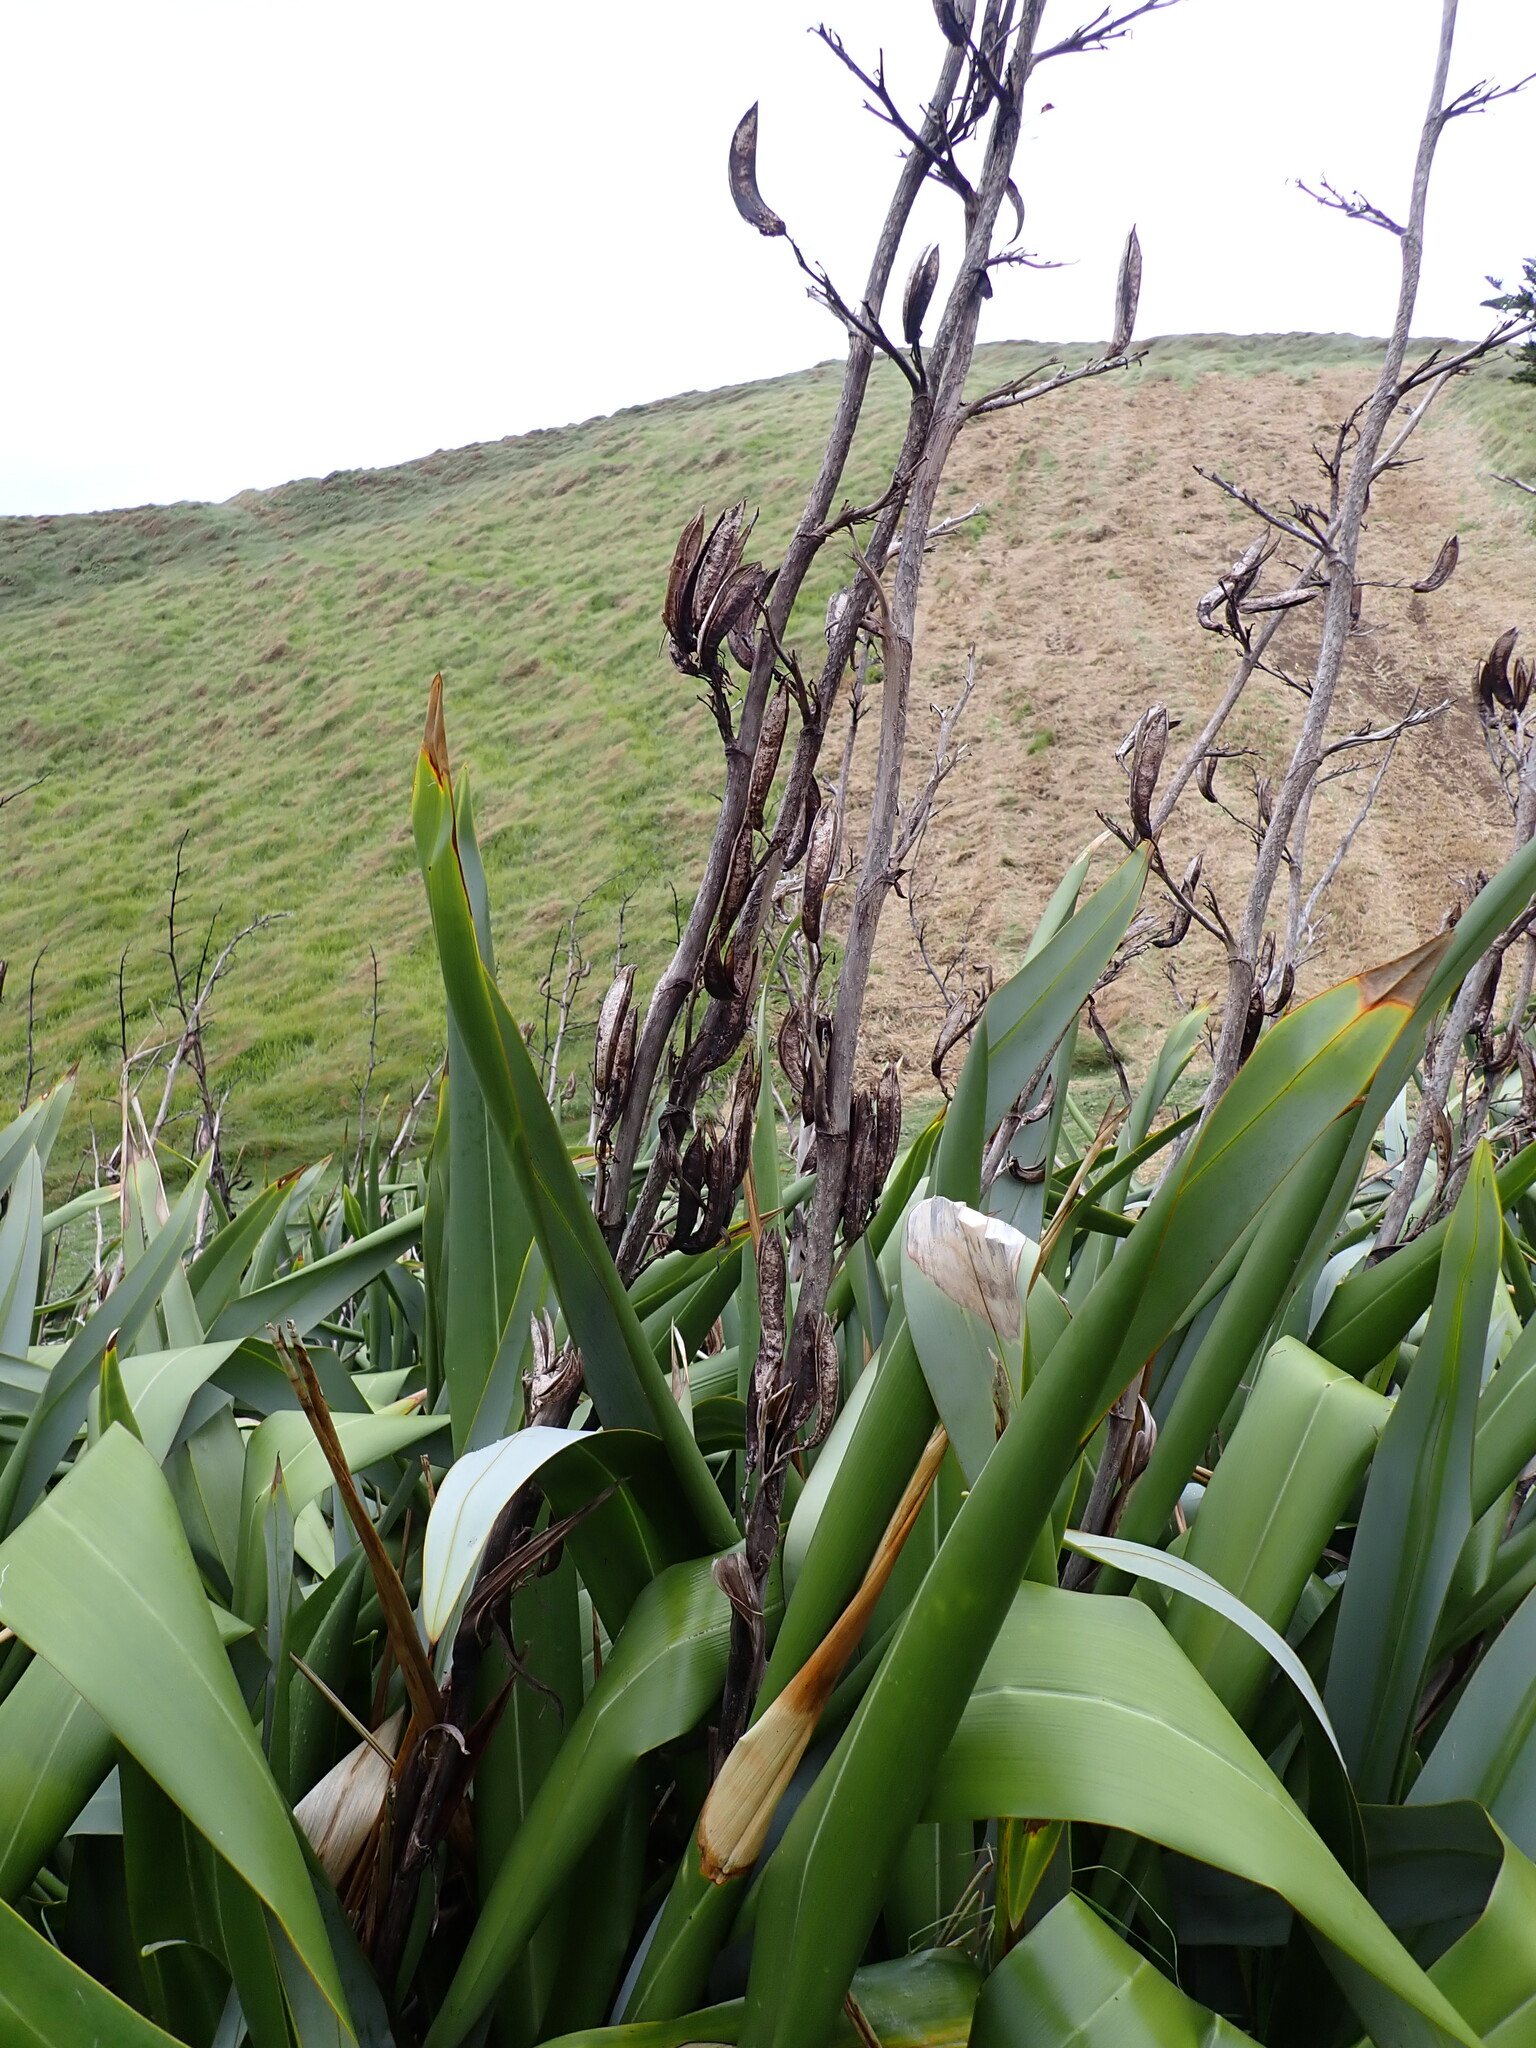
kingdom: Plantae
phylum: Tracheophyta
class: Liliopsida
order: Asparagales
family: Asphodelaceae
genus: Phormium
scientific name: Phormium tenax
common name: New zealand flax
